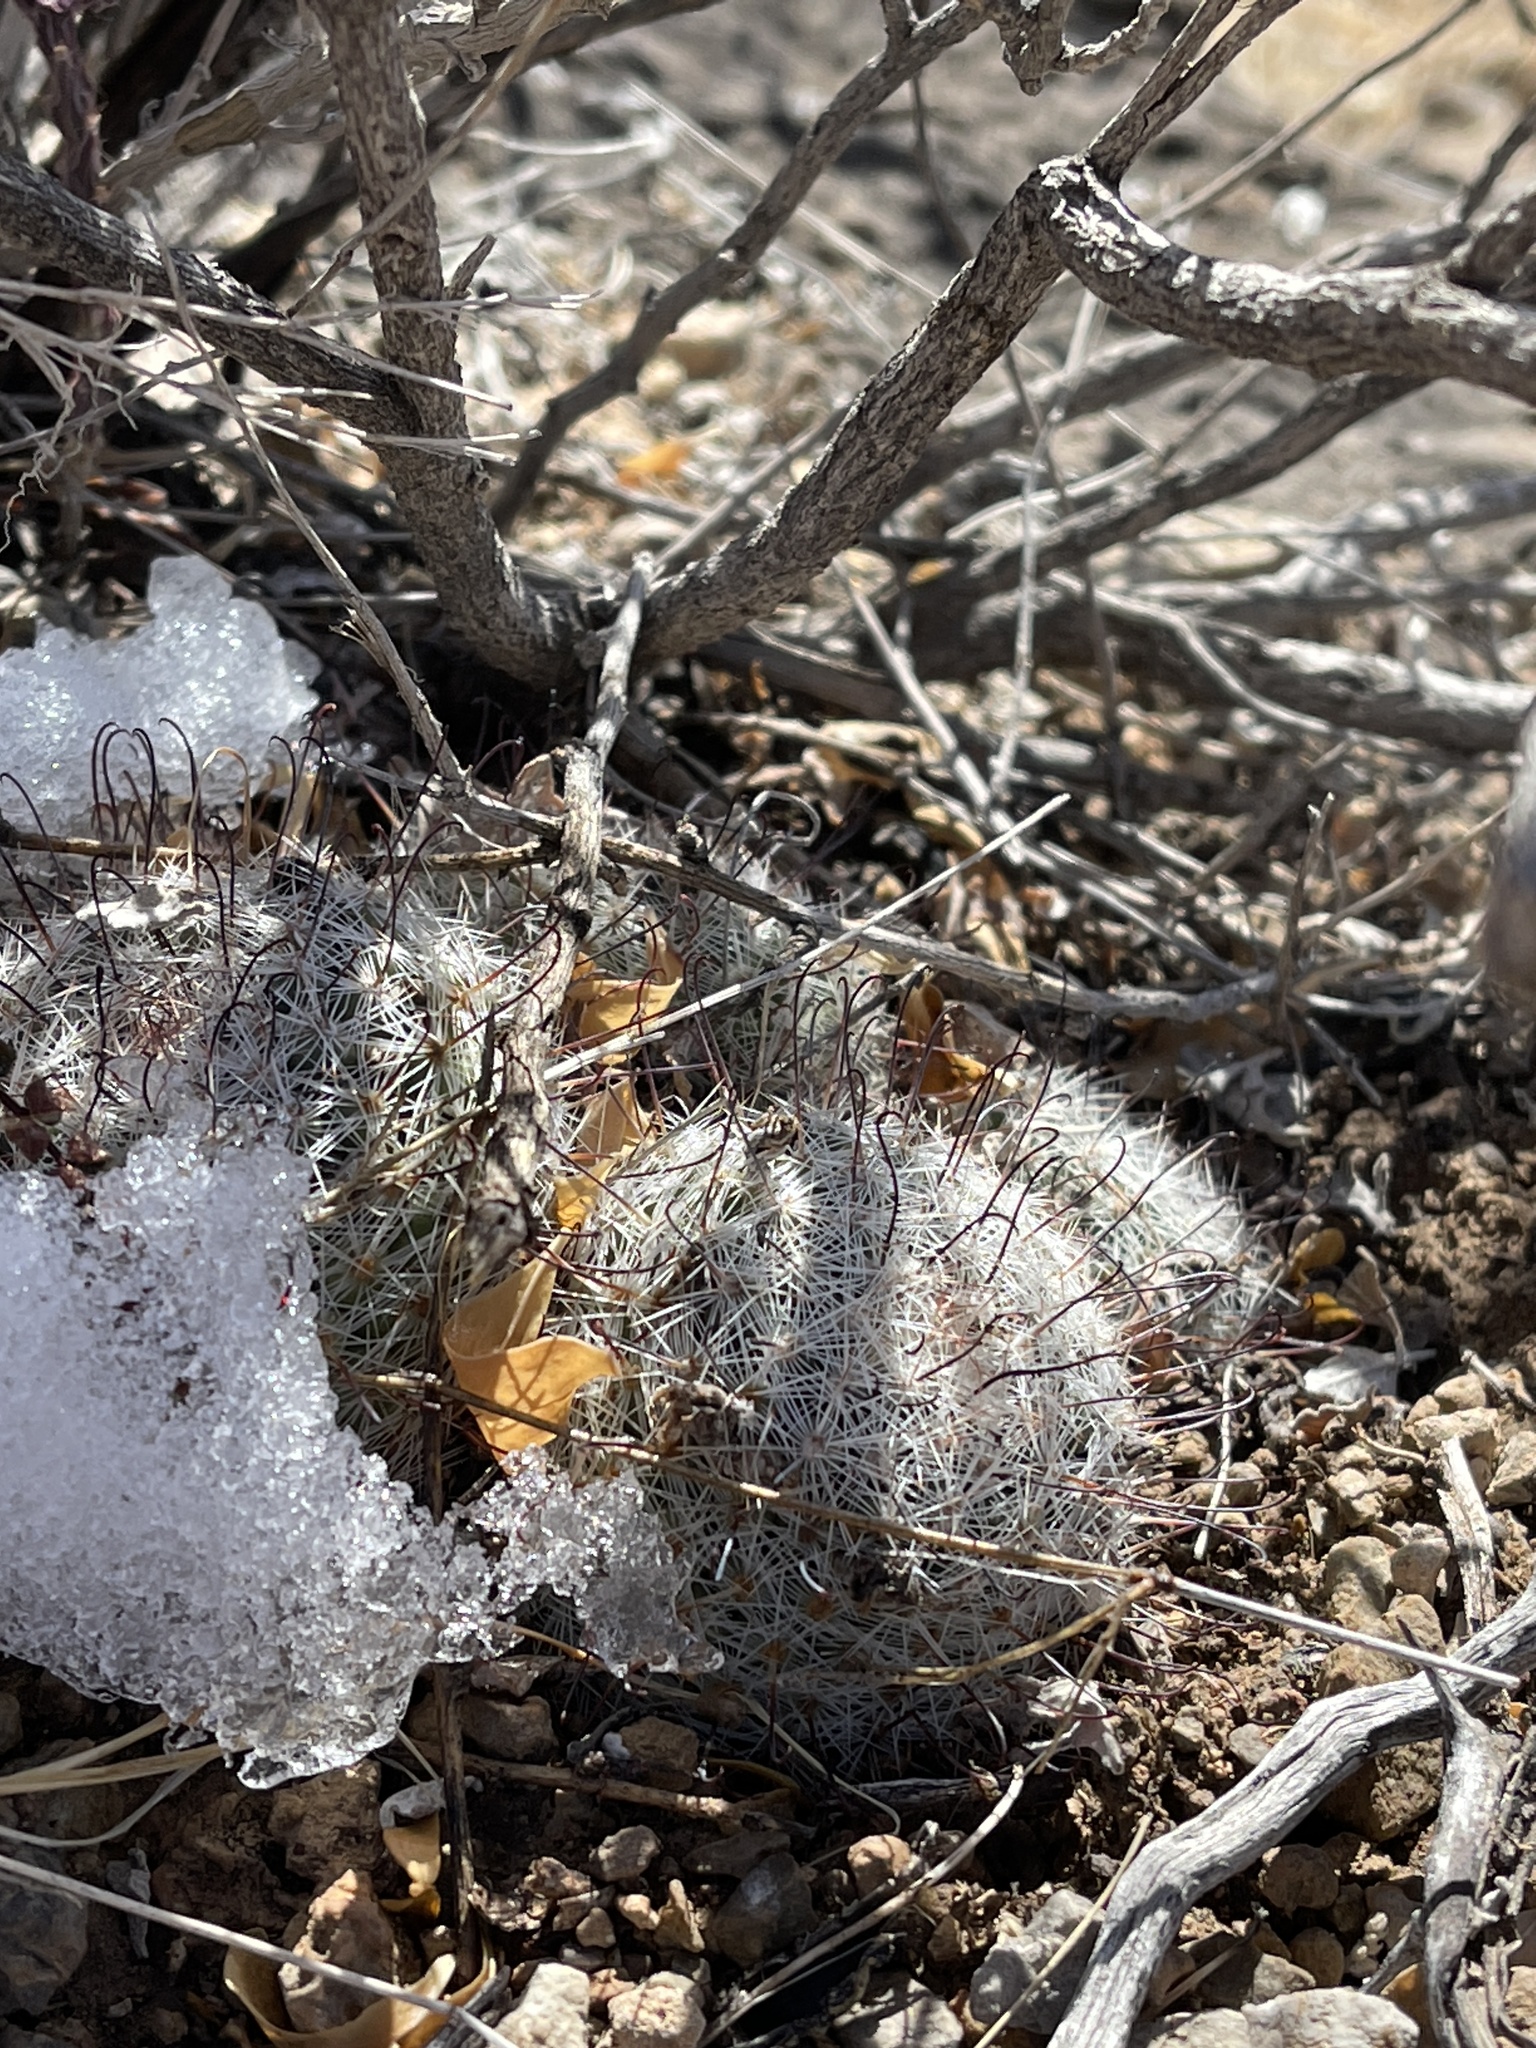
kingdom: Plantae
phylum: Tracheophyta
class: Magnoliopsida
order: Caryophyllales
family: Cactaceae
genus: Cochemiea
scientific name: Cochemiea grahamii
